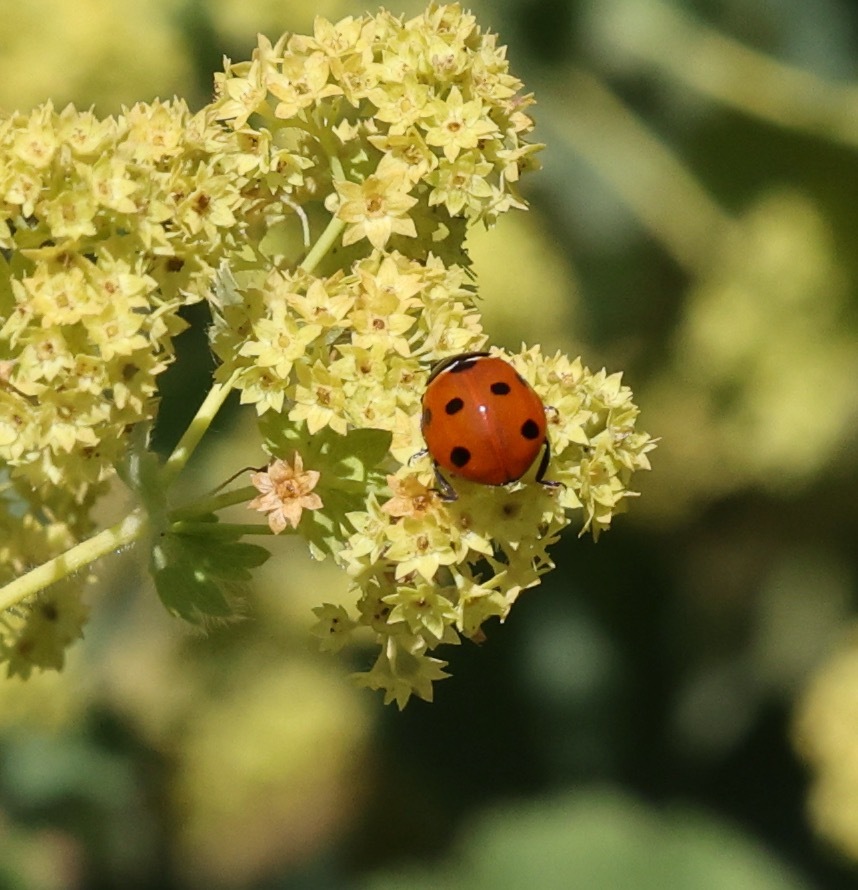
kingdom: Animalia
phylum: Arthropoda
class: Insecta
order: Coleoptera
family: Coccinellidae
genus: Coccinella
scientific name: Coccinella septempunctata
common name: Sevenspotted lady beetle
